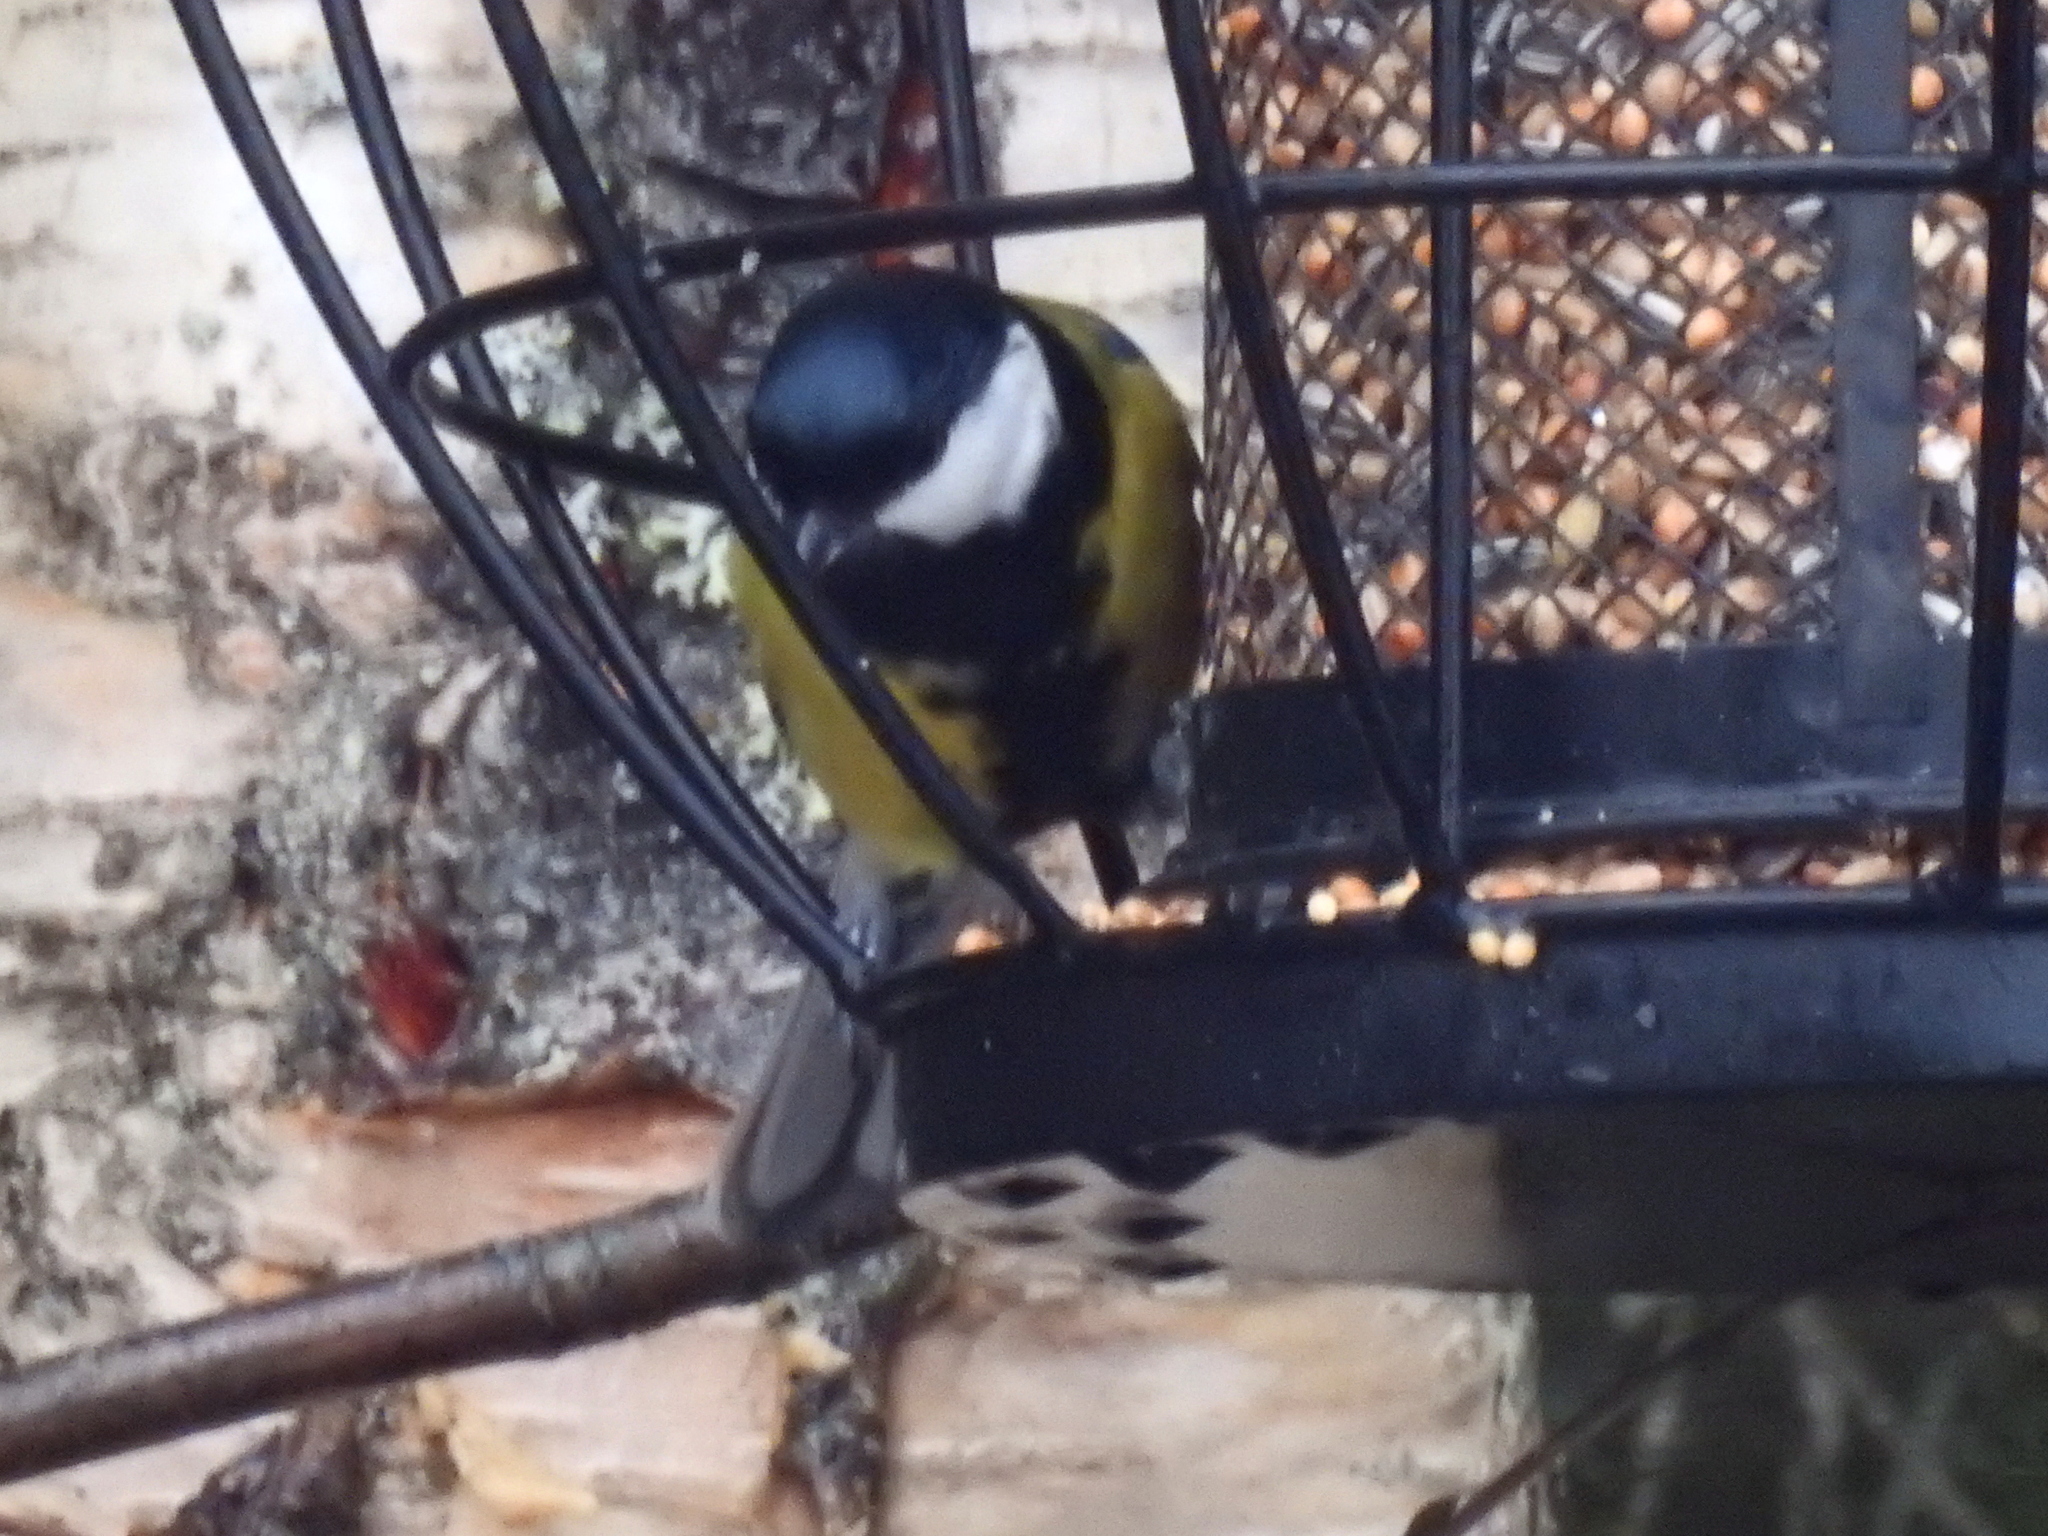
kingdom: Animalia
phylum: Chordata
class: Aves
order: Passeriformes
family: Paridae
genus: Parus
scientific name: Parus major
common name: Great tit
